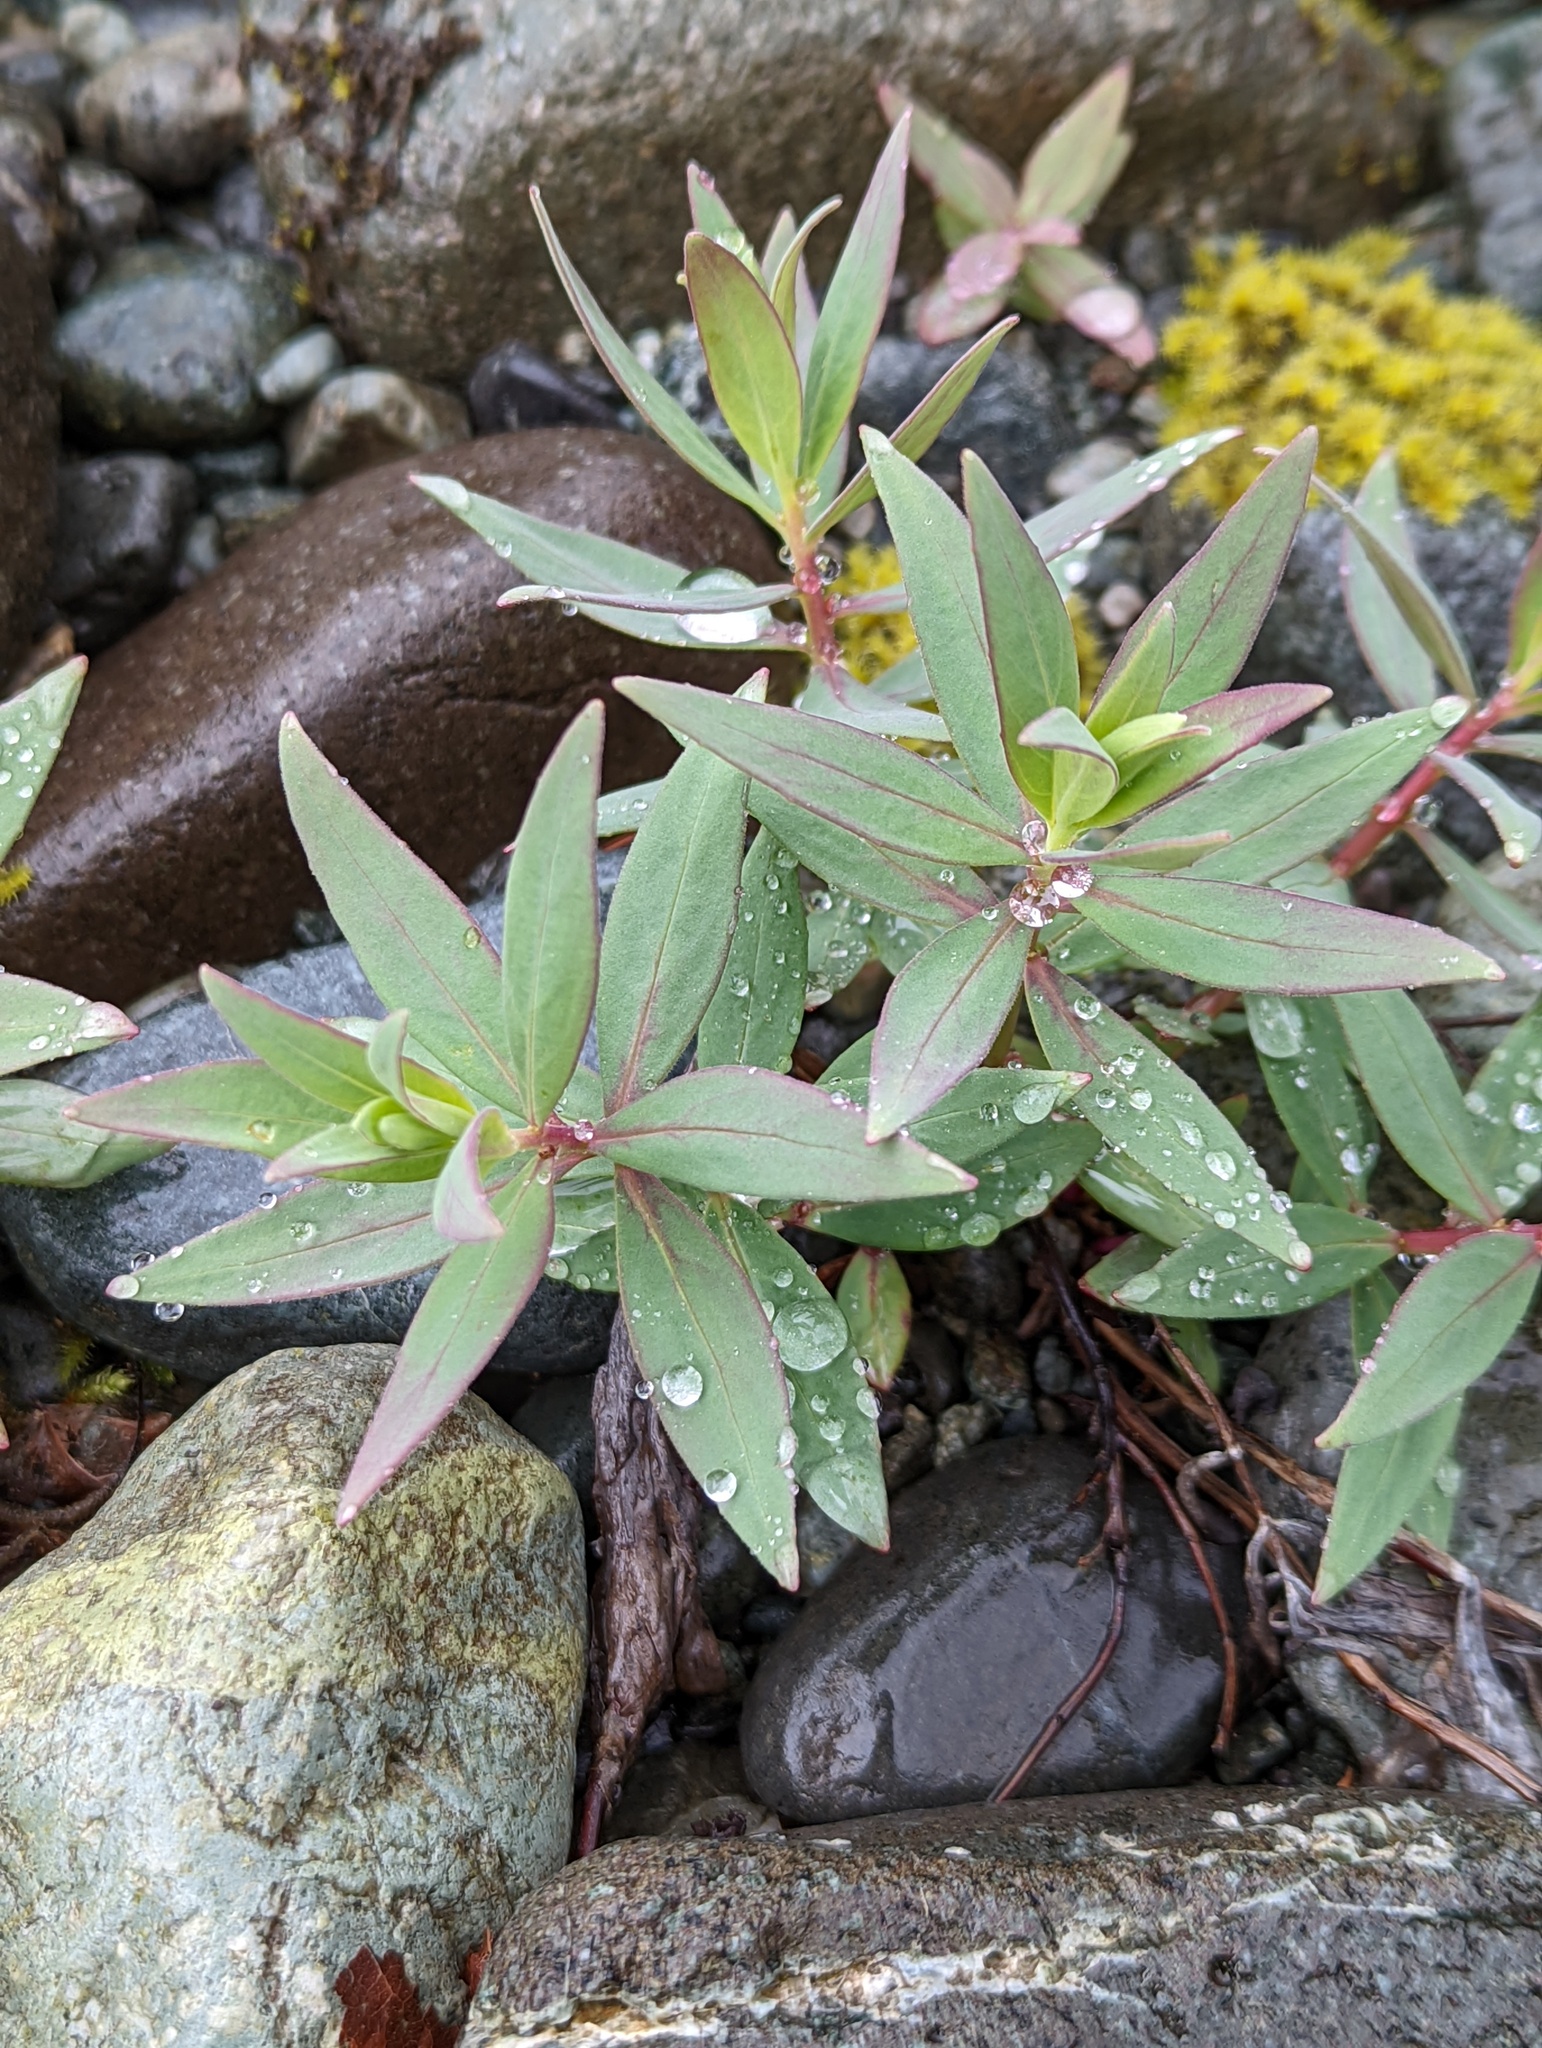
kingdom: Plantae
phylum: Tracheophyta
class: Magnoliopsida
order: Myrtales
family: Onagraceae
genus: Chamaenerion
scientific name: Chamaenerion latifolium
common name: Dwarf fireweed
